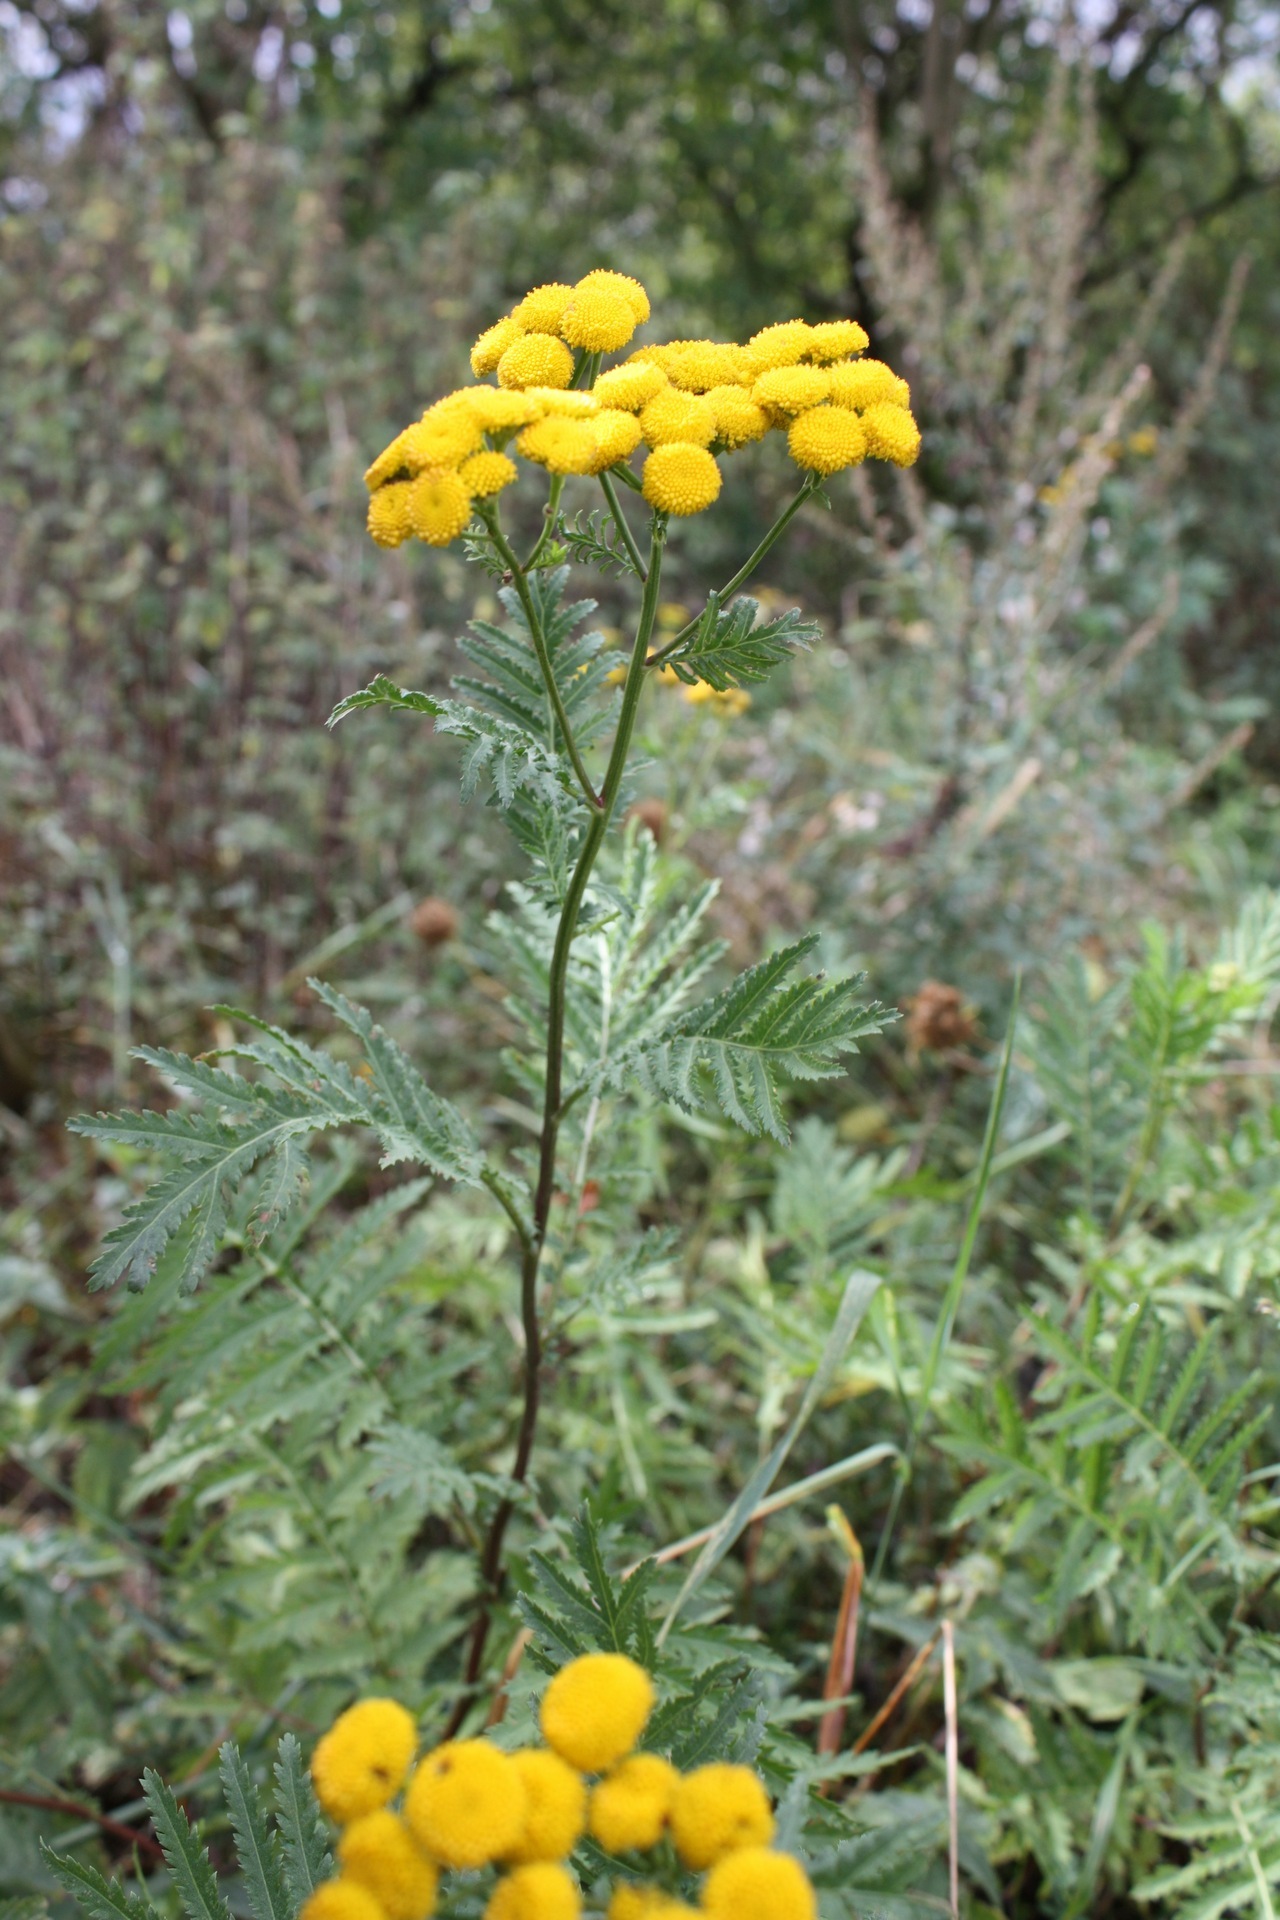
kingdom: Plantae
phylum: Tracheophyta
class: Magnoliopsida
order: Asterales
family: Asteraceae
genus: Tanacetum
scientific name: Tanacetum vulgare
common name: Common tansy
